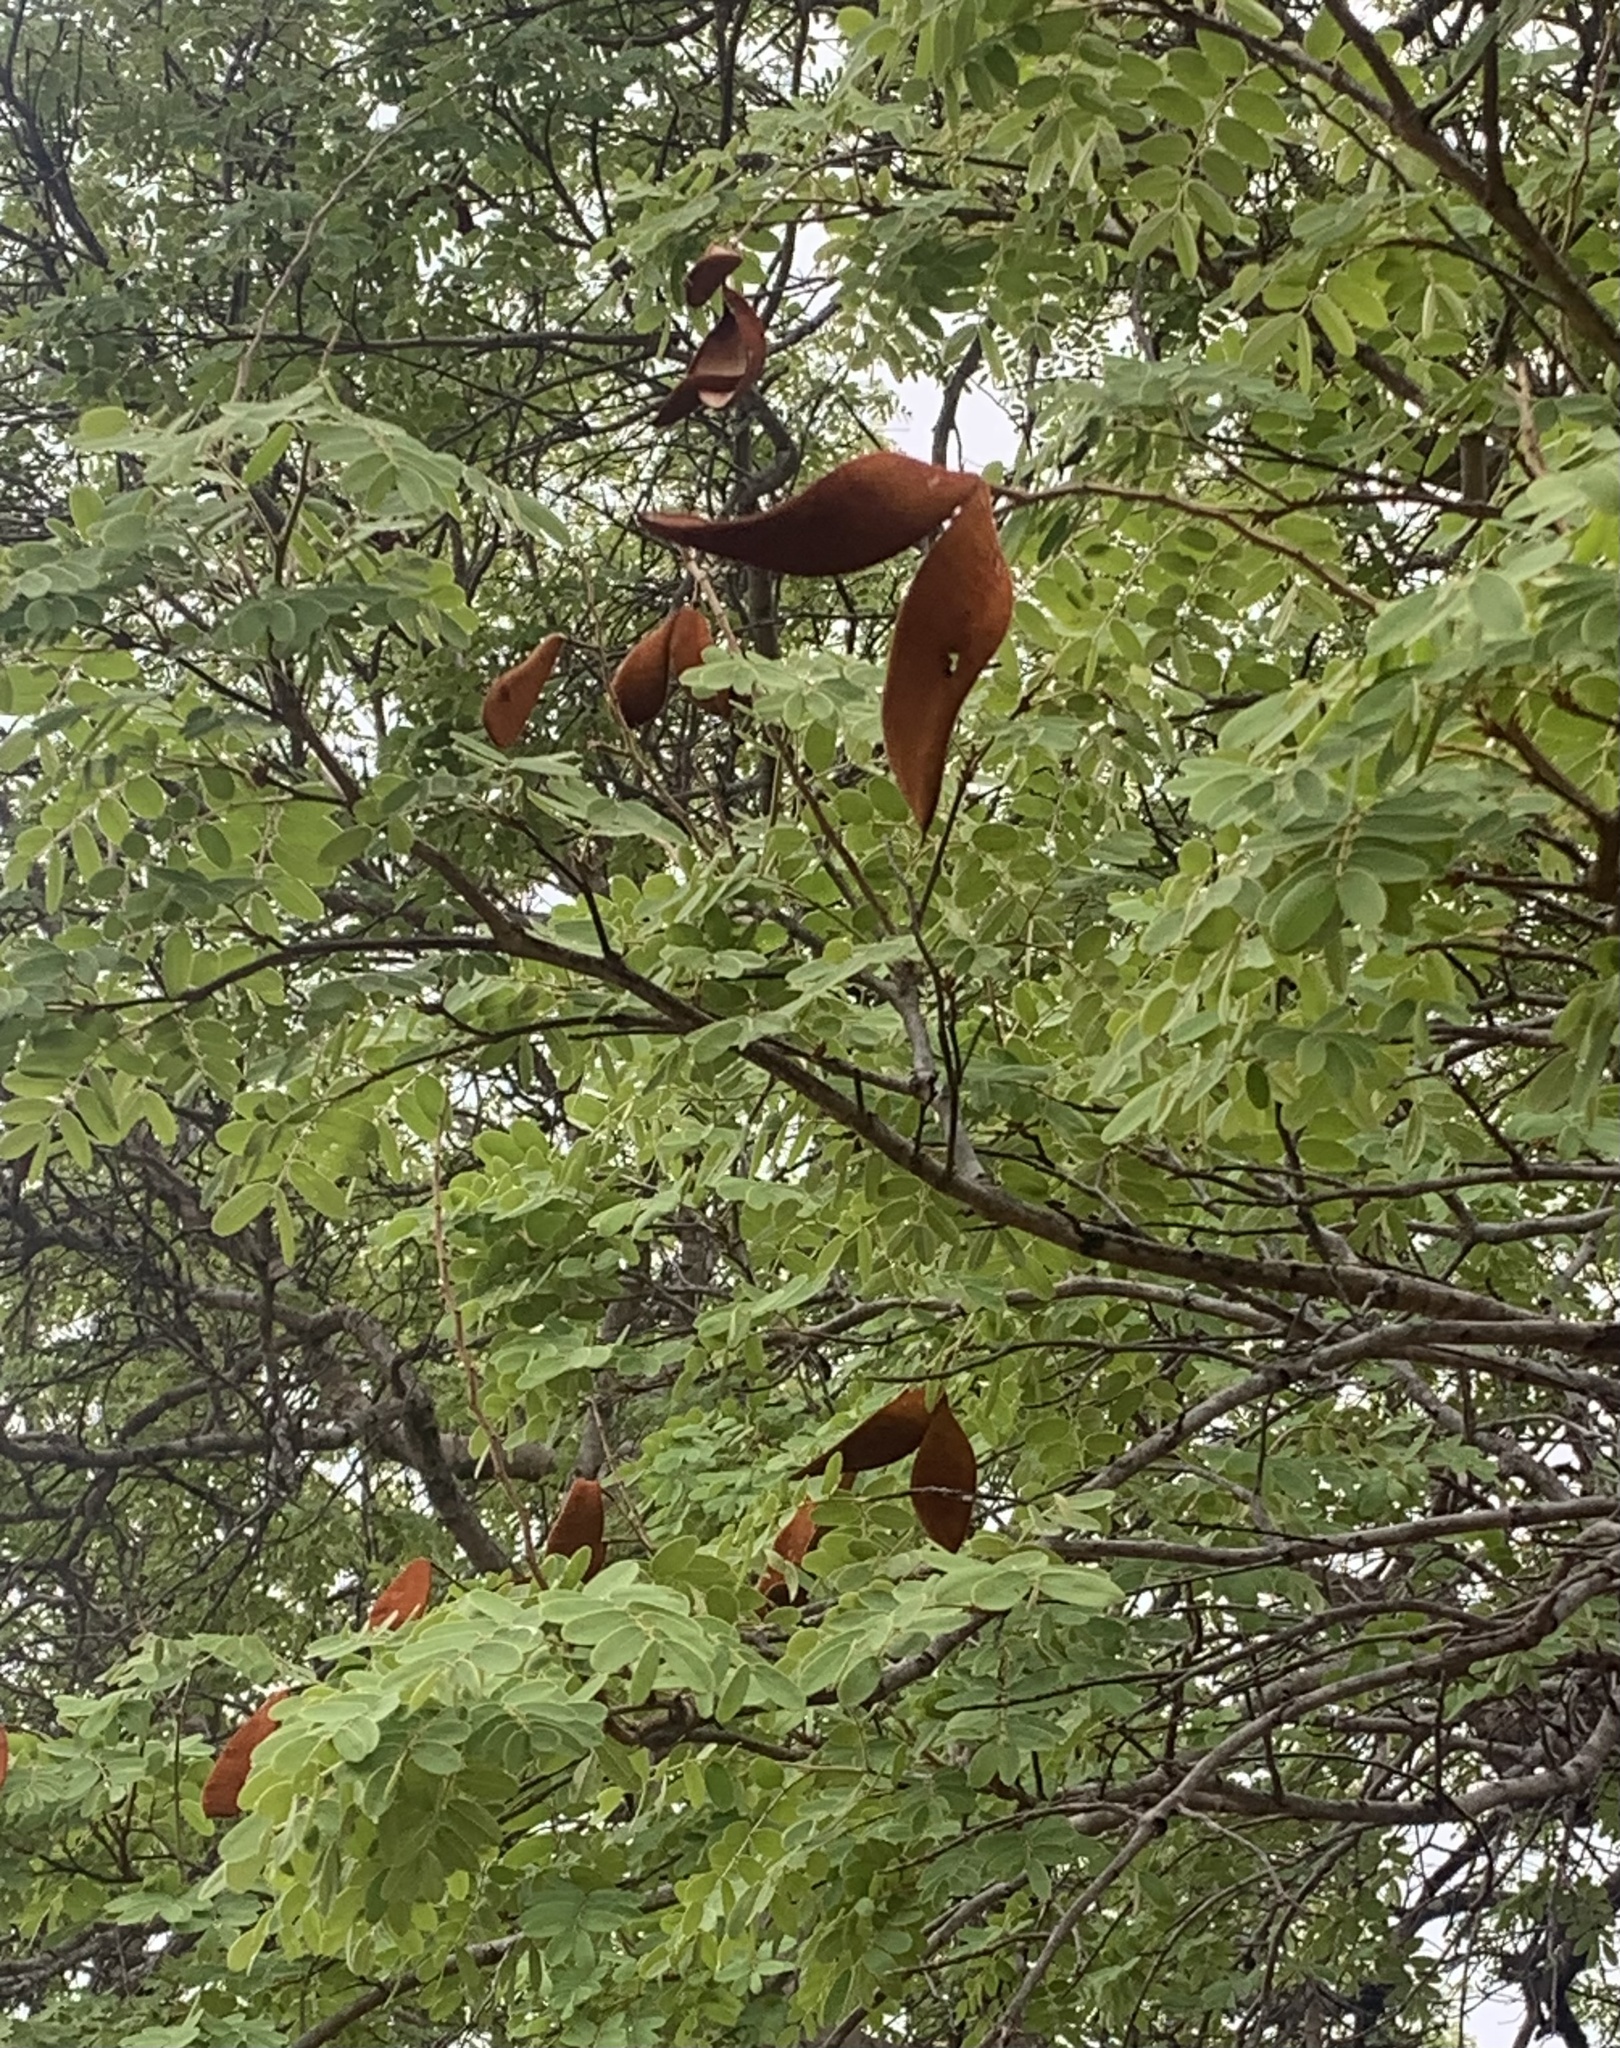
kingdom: Plantae
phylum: Tracheophyta
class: Magnoliopsida
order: Fabales
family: Fabaceae
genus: Baikiaea
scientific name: Baikiaea plurijuga
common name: Rhodesian-teak
